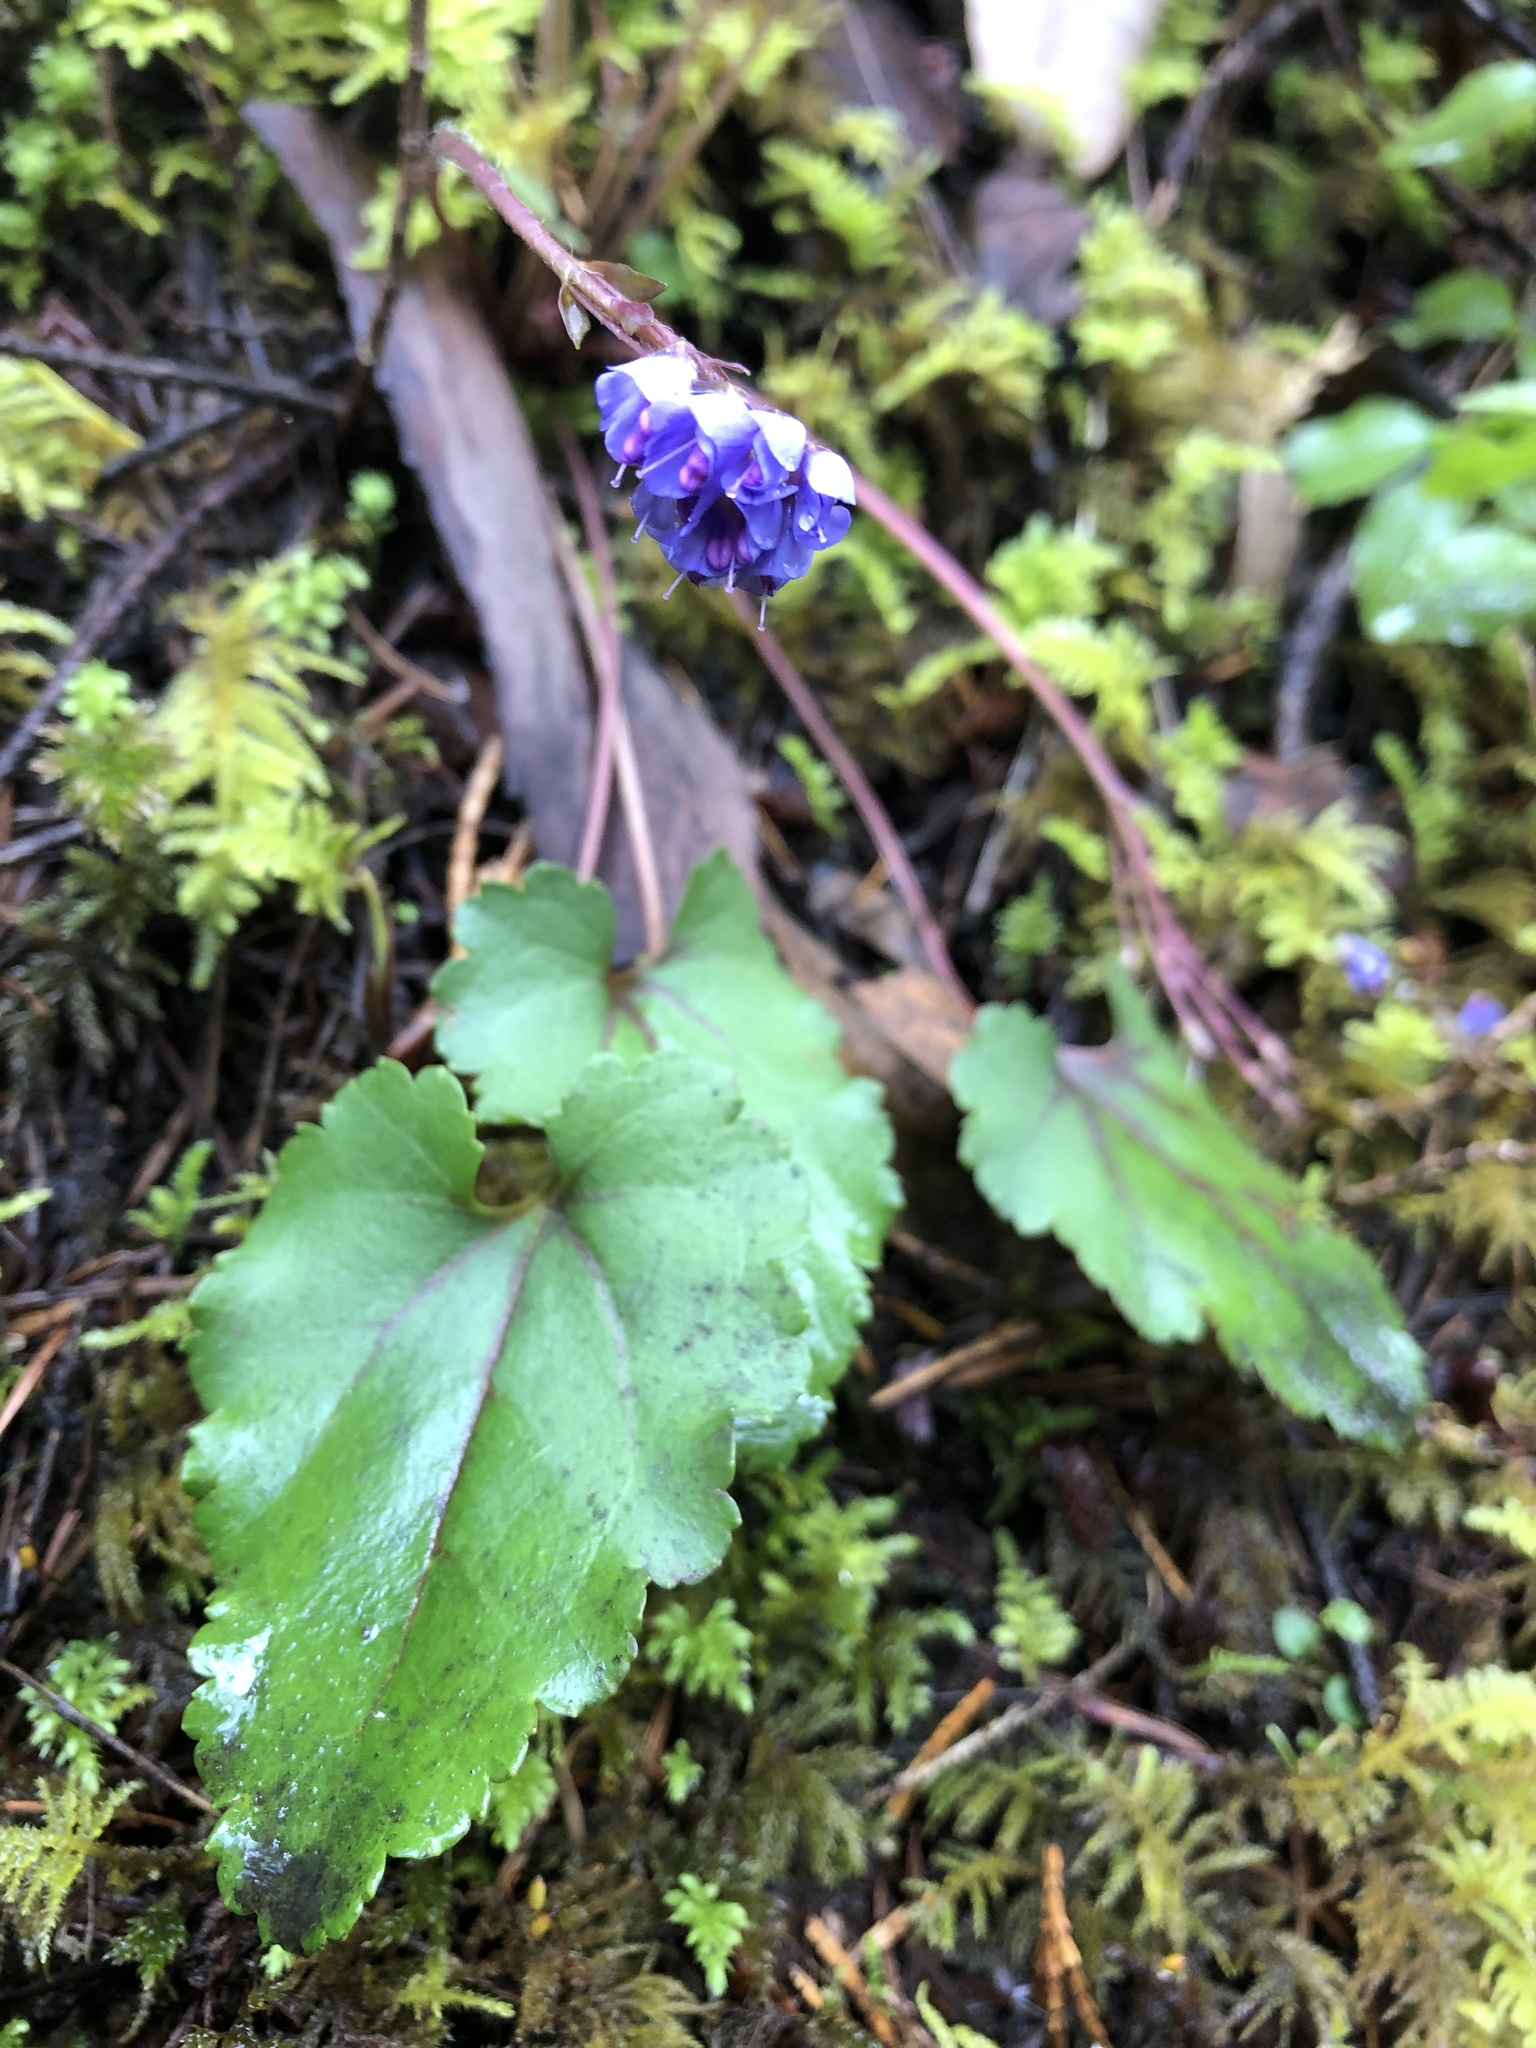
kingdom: Plantae
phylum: Tracheophyta
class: Magnoliopsida
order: Lamiales
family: Plantaginaceae
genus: Synthyris
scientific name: Synthyris reniformis
